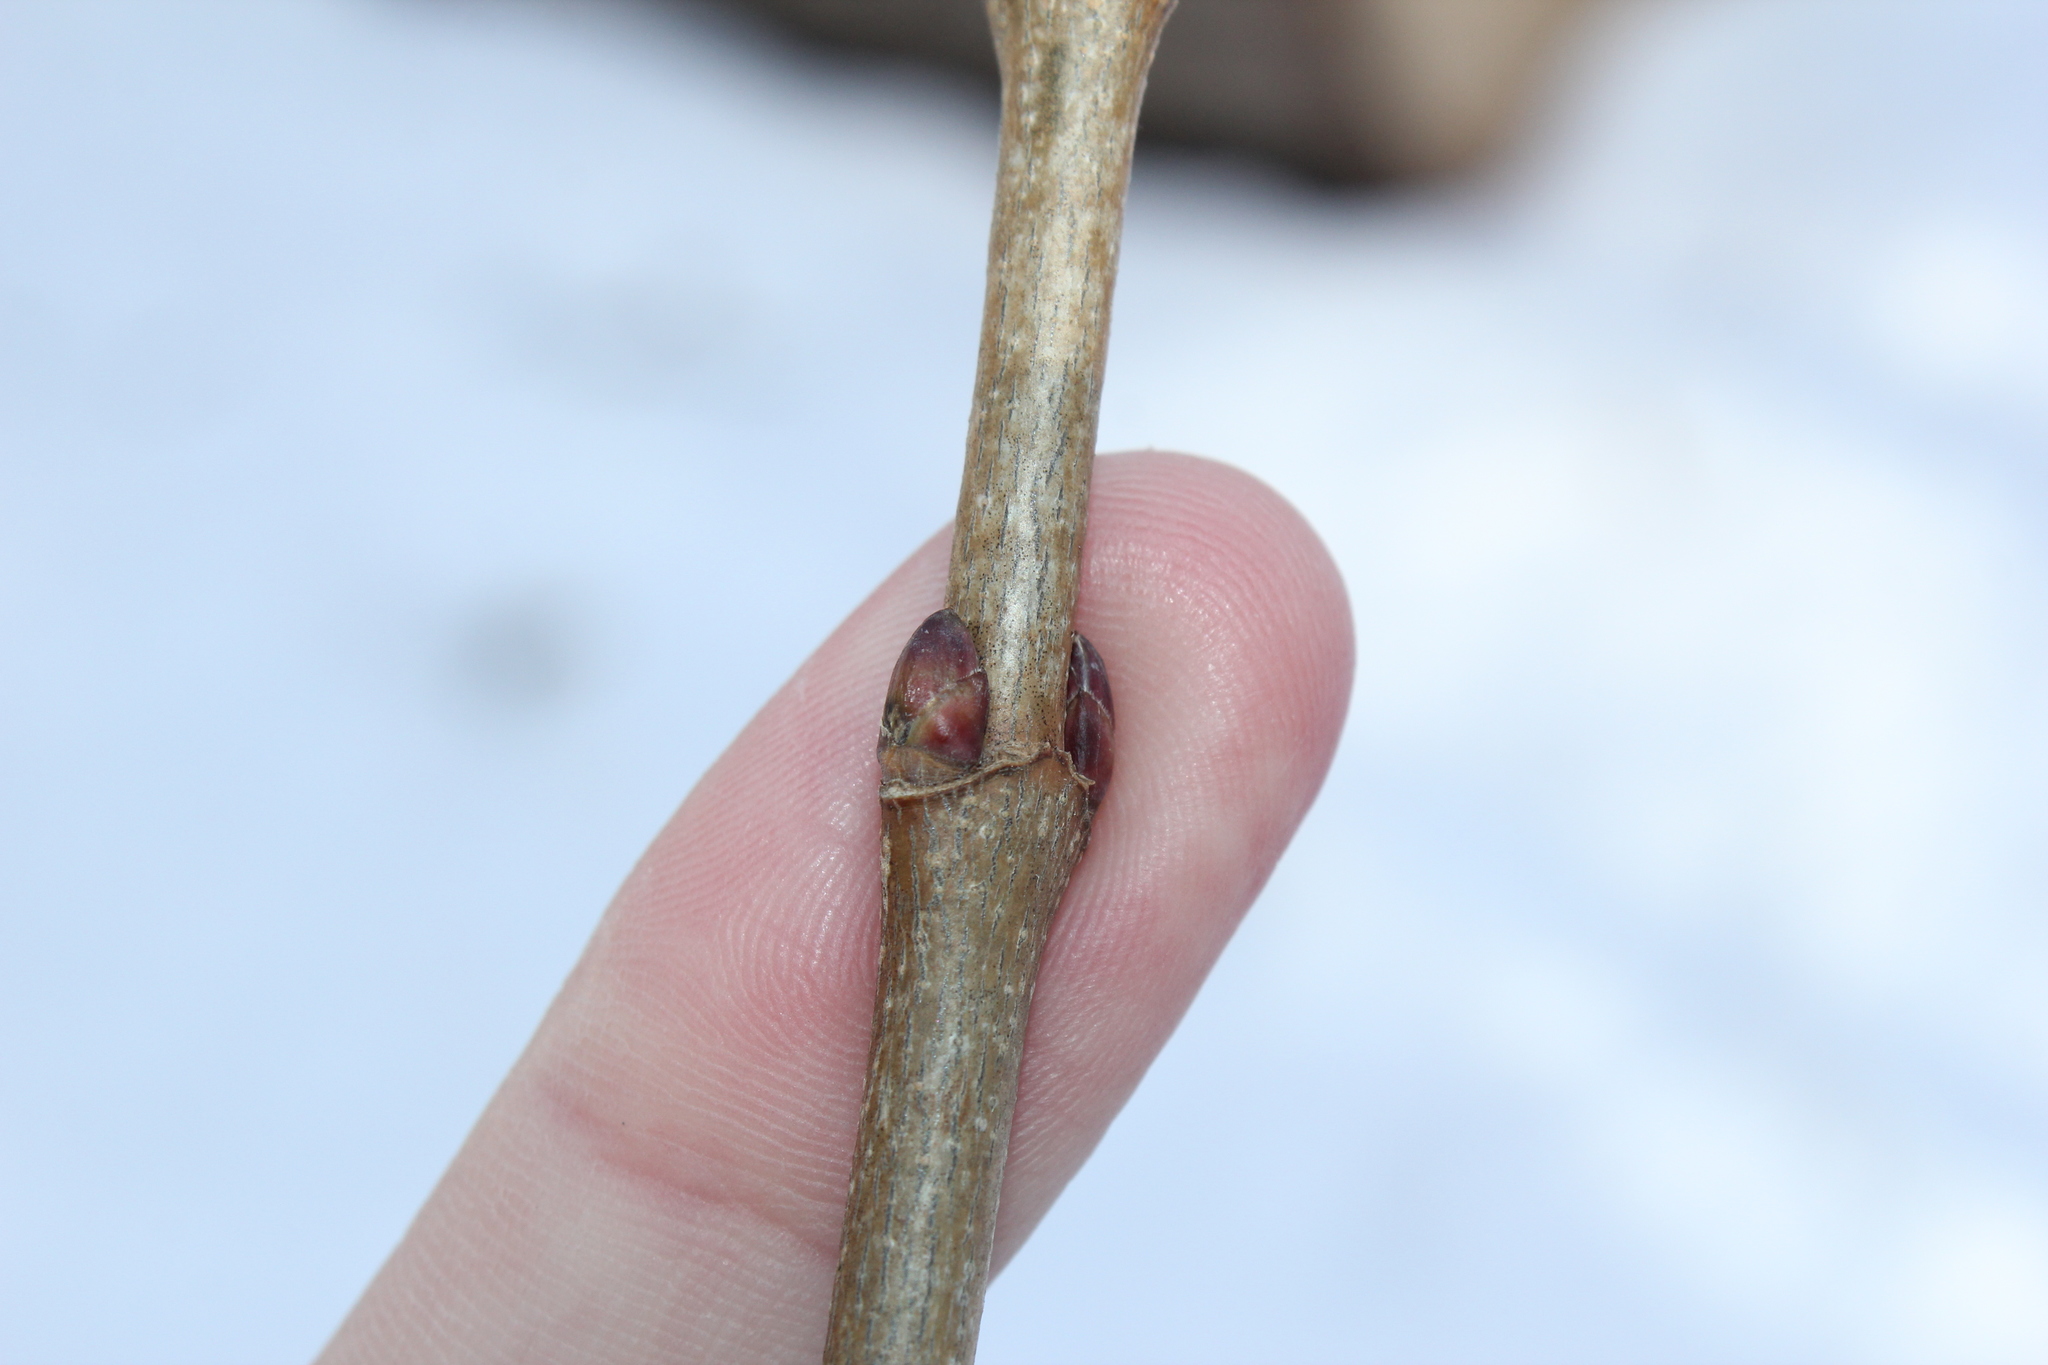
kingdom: Plantae
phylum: Tracheophyta
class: Magnoliopsida
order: Sapindales
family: Sapindaceae
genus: Acer
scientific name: Acer platanoides
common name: Norway maple
